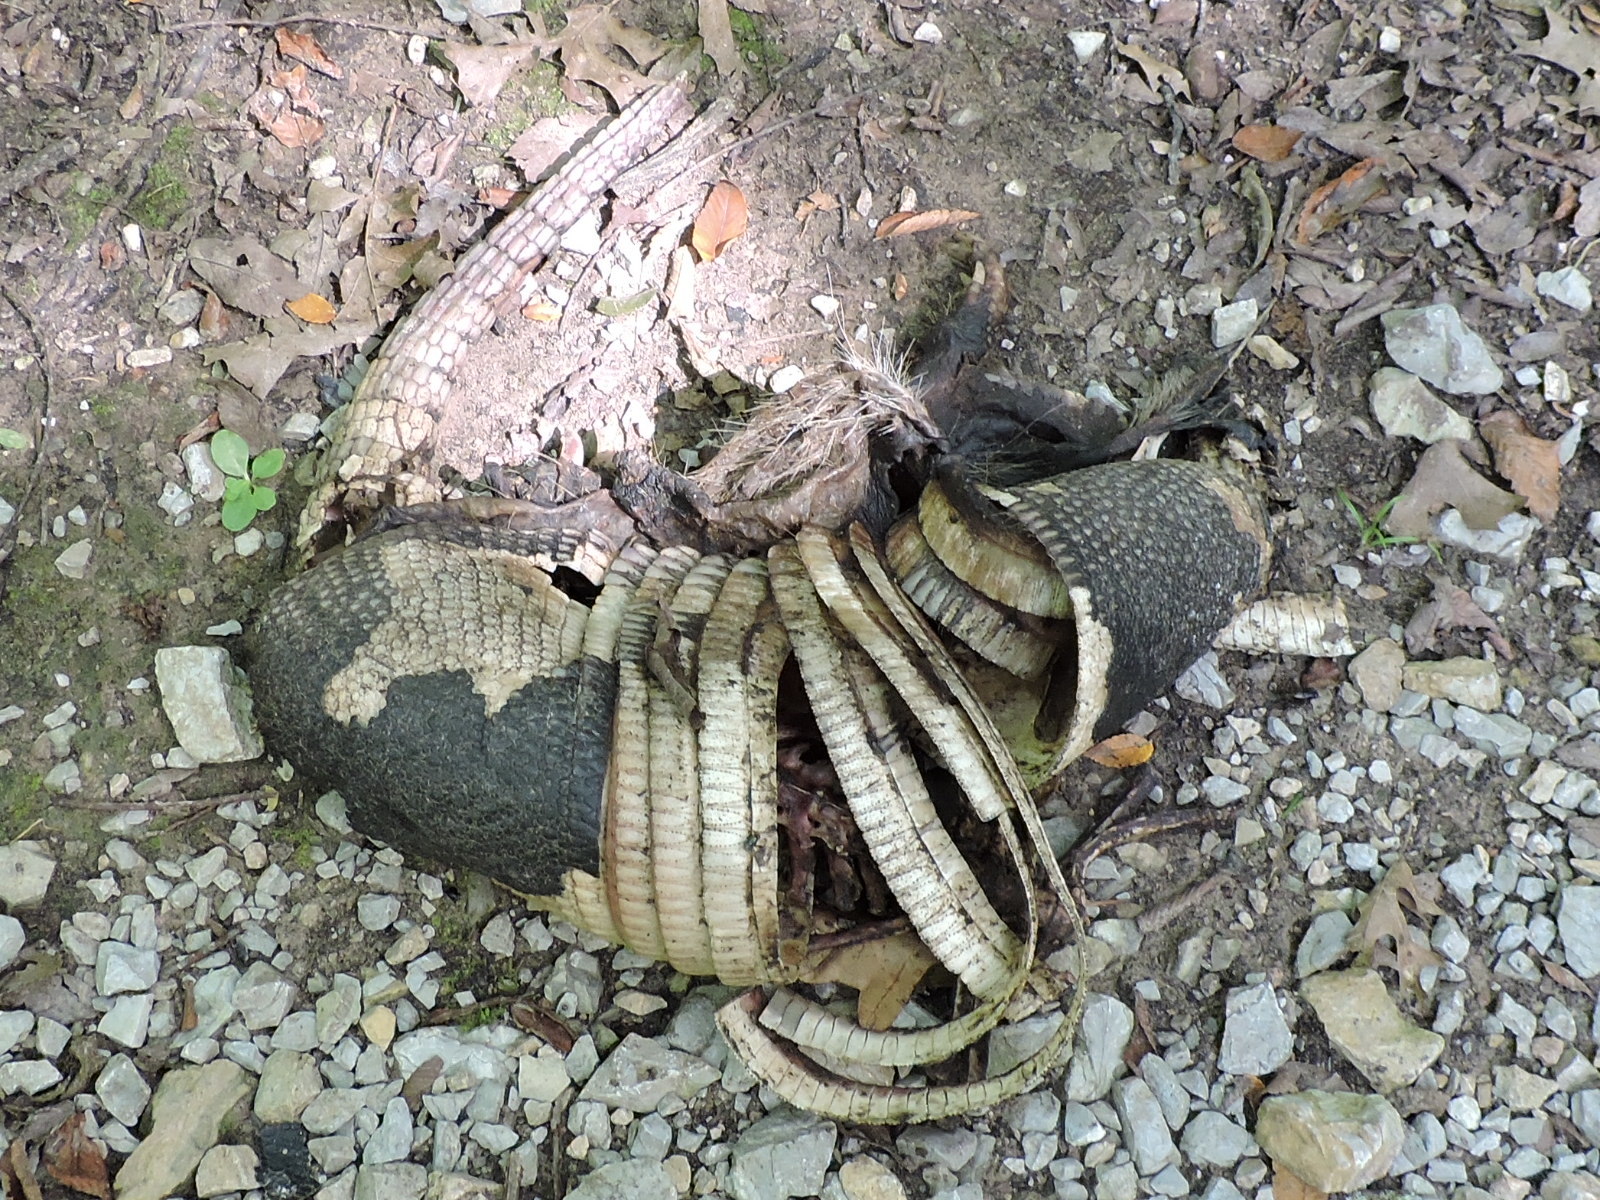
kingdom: Animalia
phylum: Chordata
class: Mammalia
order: Cingulata
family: Dasypodidae
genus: Dasypus
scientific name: Dasypus novemcinctus
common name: Nine-banded armadillo
